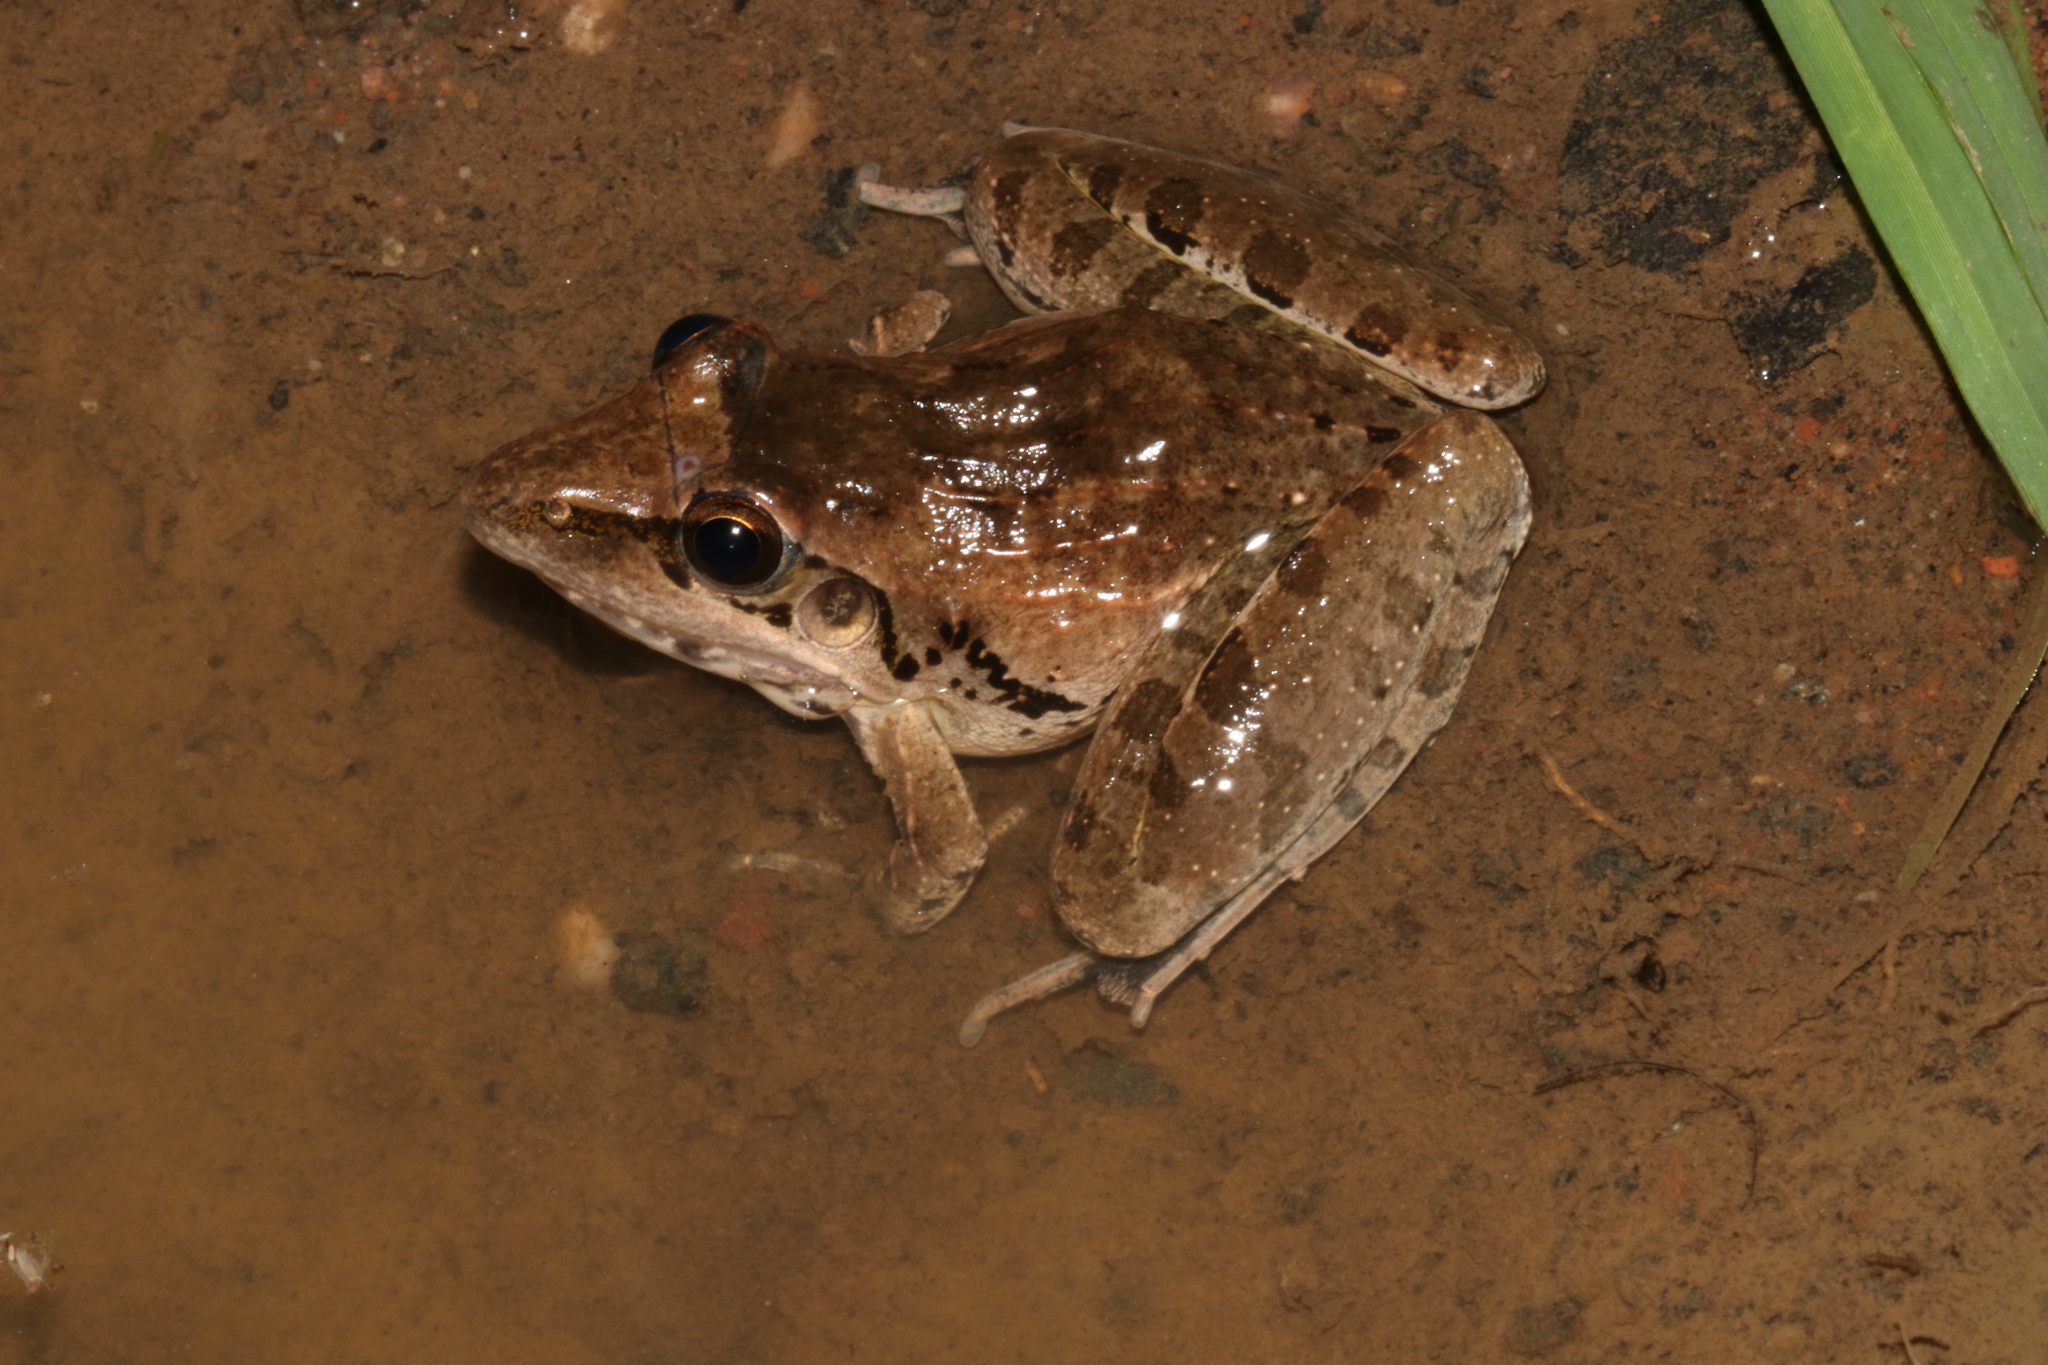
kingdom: Animalia
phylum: Chordata
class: Amphibia
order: Anura
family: Ptychadenidae
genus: Ptychadena
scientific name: Ptychadena anchietae
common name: Anchieta's ridged frog
